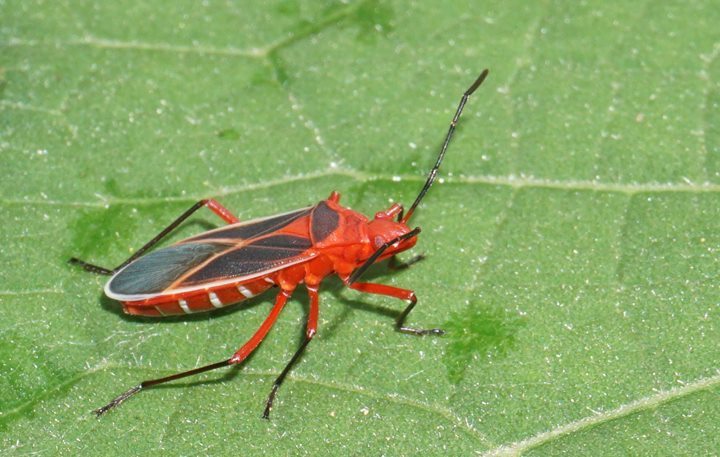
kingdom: Animalia
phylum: Arthropoda
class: Insecta
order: Hemiptera
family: Pyrrhocoridae
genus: Dysdercus
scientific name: Dysdercus suturellus
